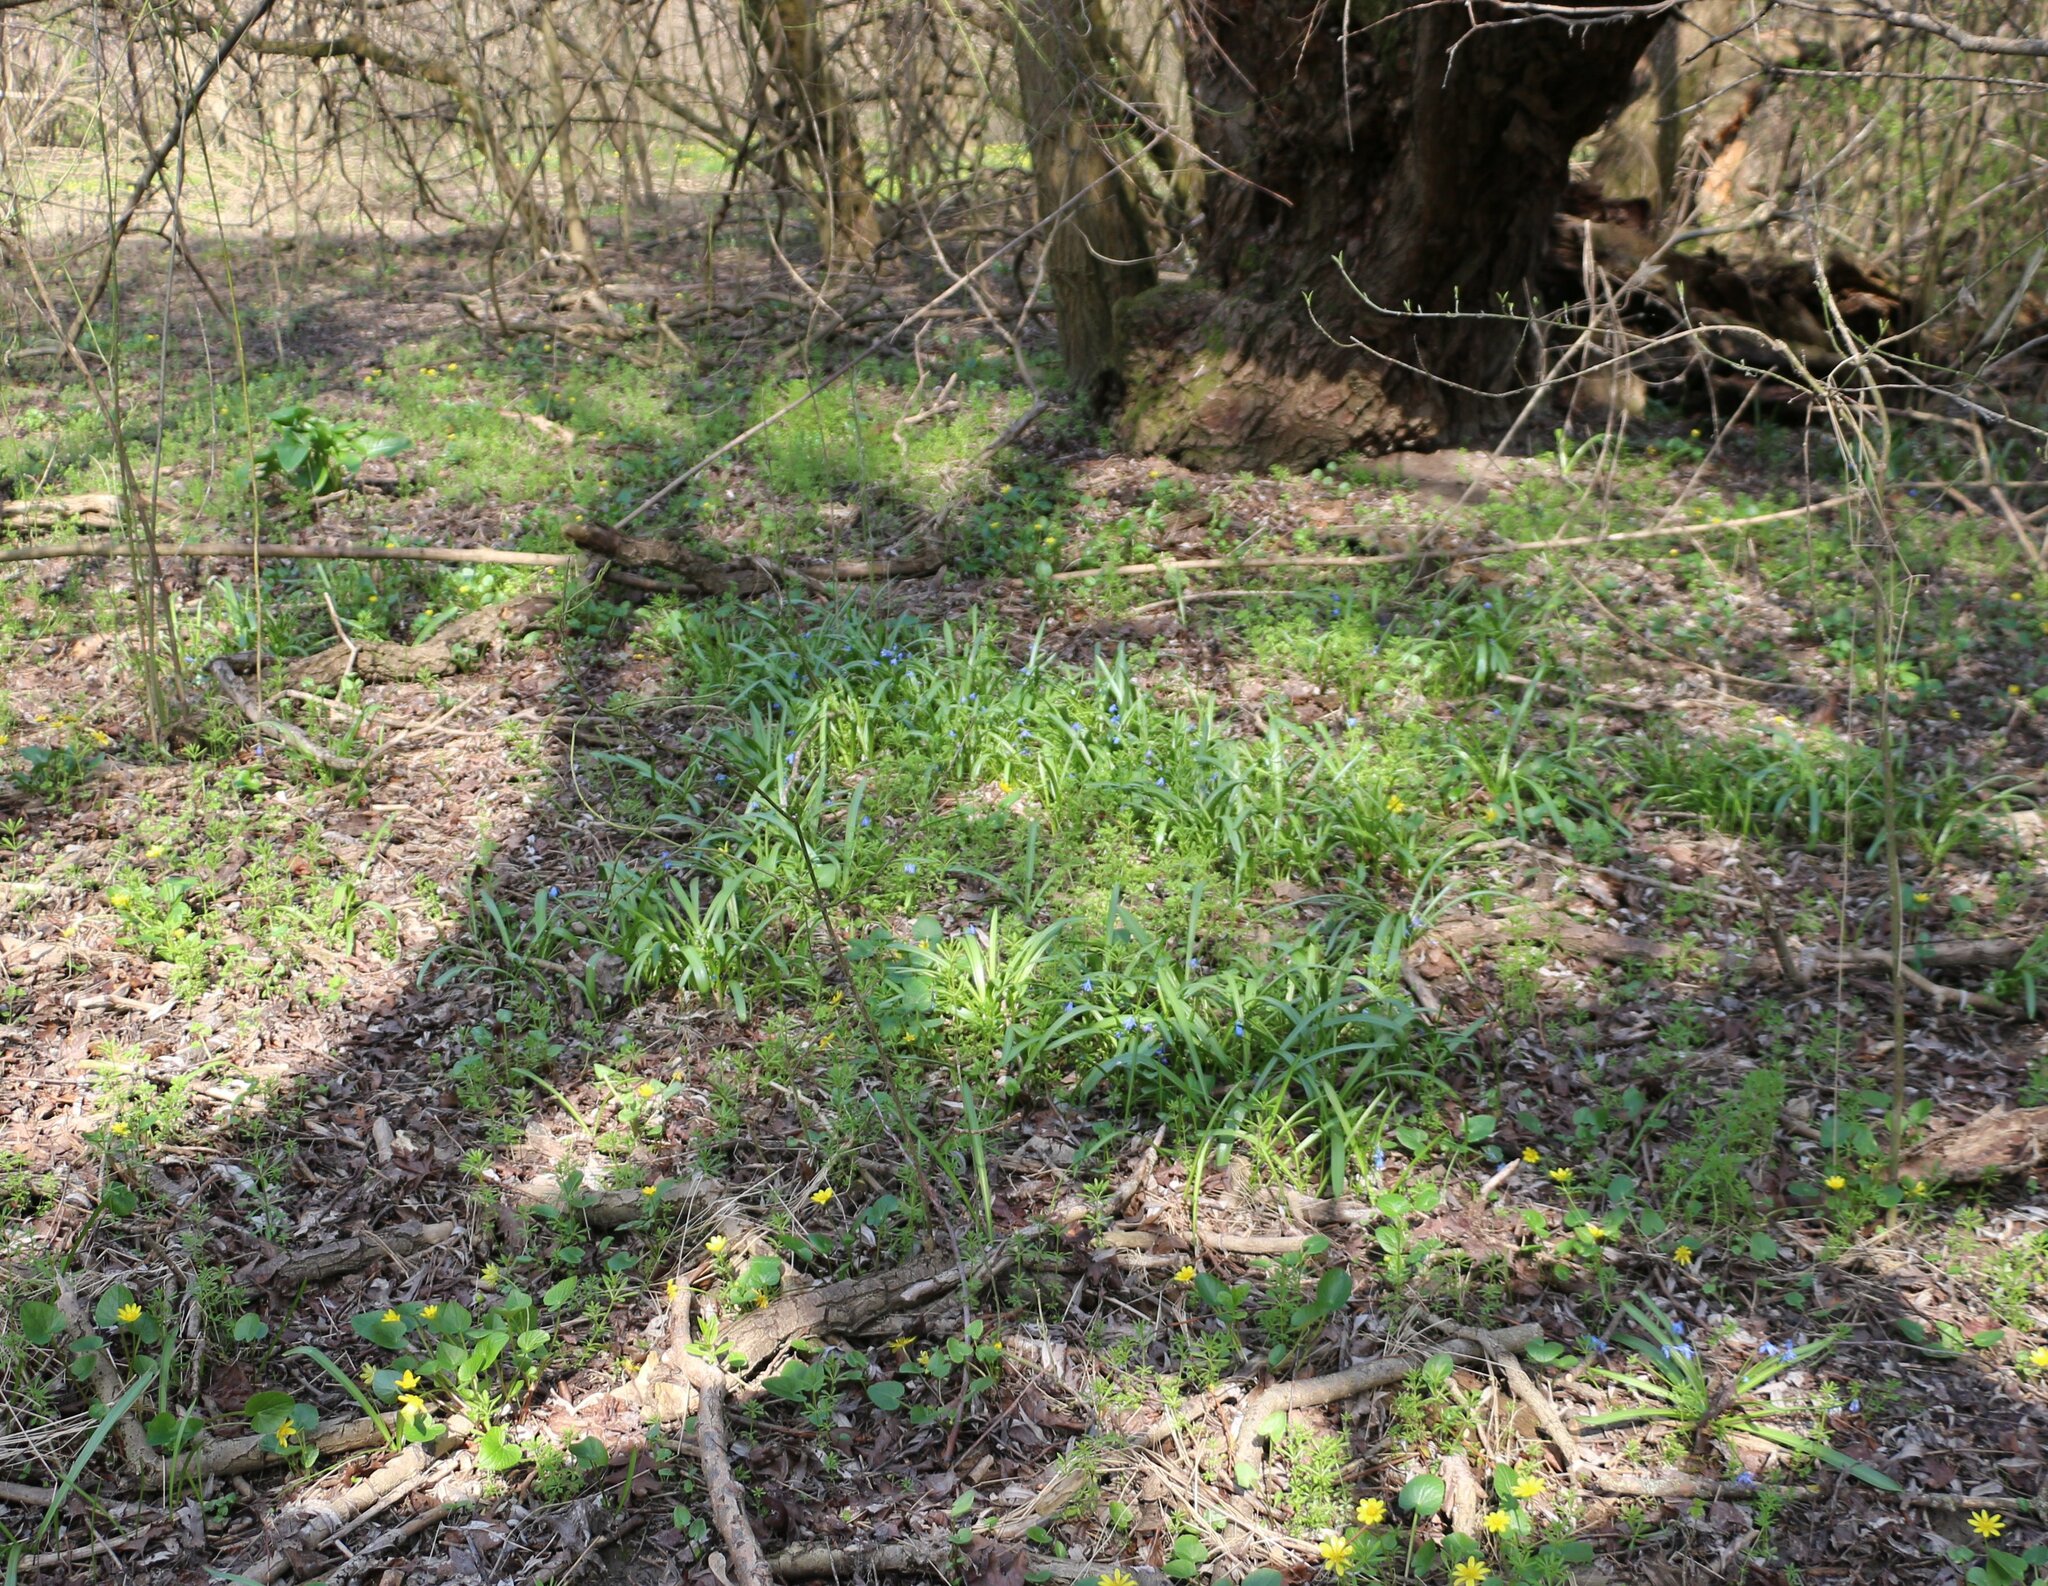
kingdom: Plantae
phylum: Tracheophyta
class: Liliopsida
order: Asparagales
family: Asparagaceae
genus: Scilla
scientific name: Scilla siberica
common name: Siberian squill
